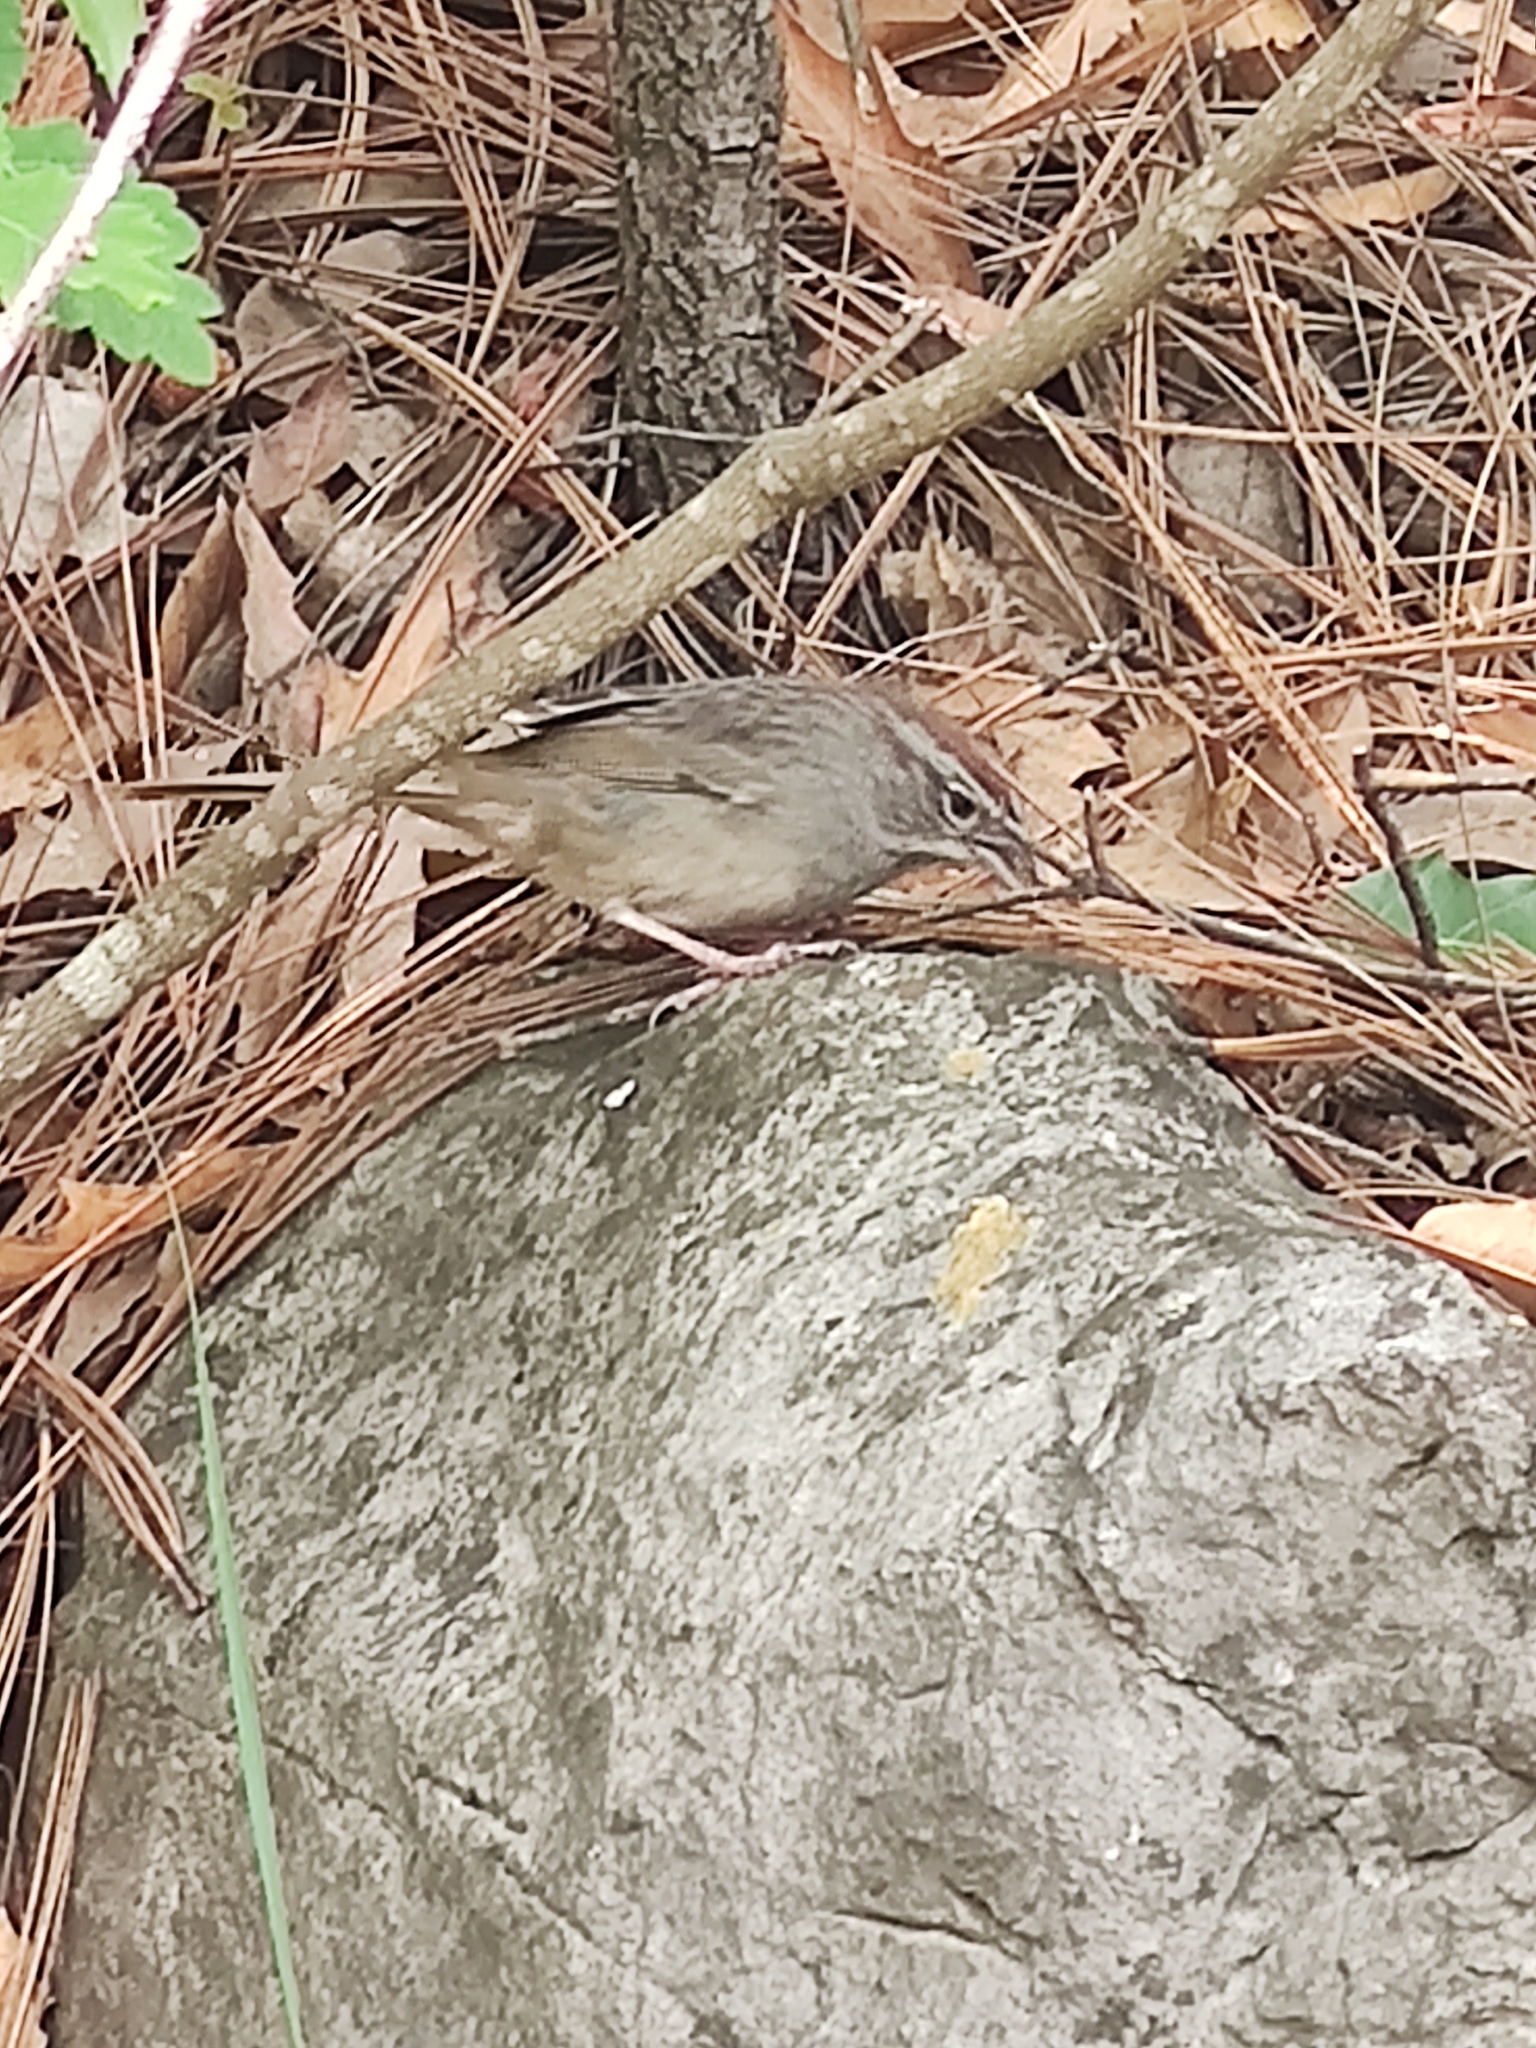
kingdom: Animalia
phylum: Chordata
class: Aves
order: Passeriformes
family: Passerellidae
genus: Aimophila
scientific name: Aimophila ruficeps
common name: Rufous-crowned sparrow
